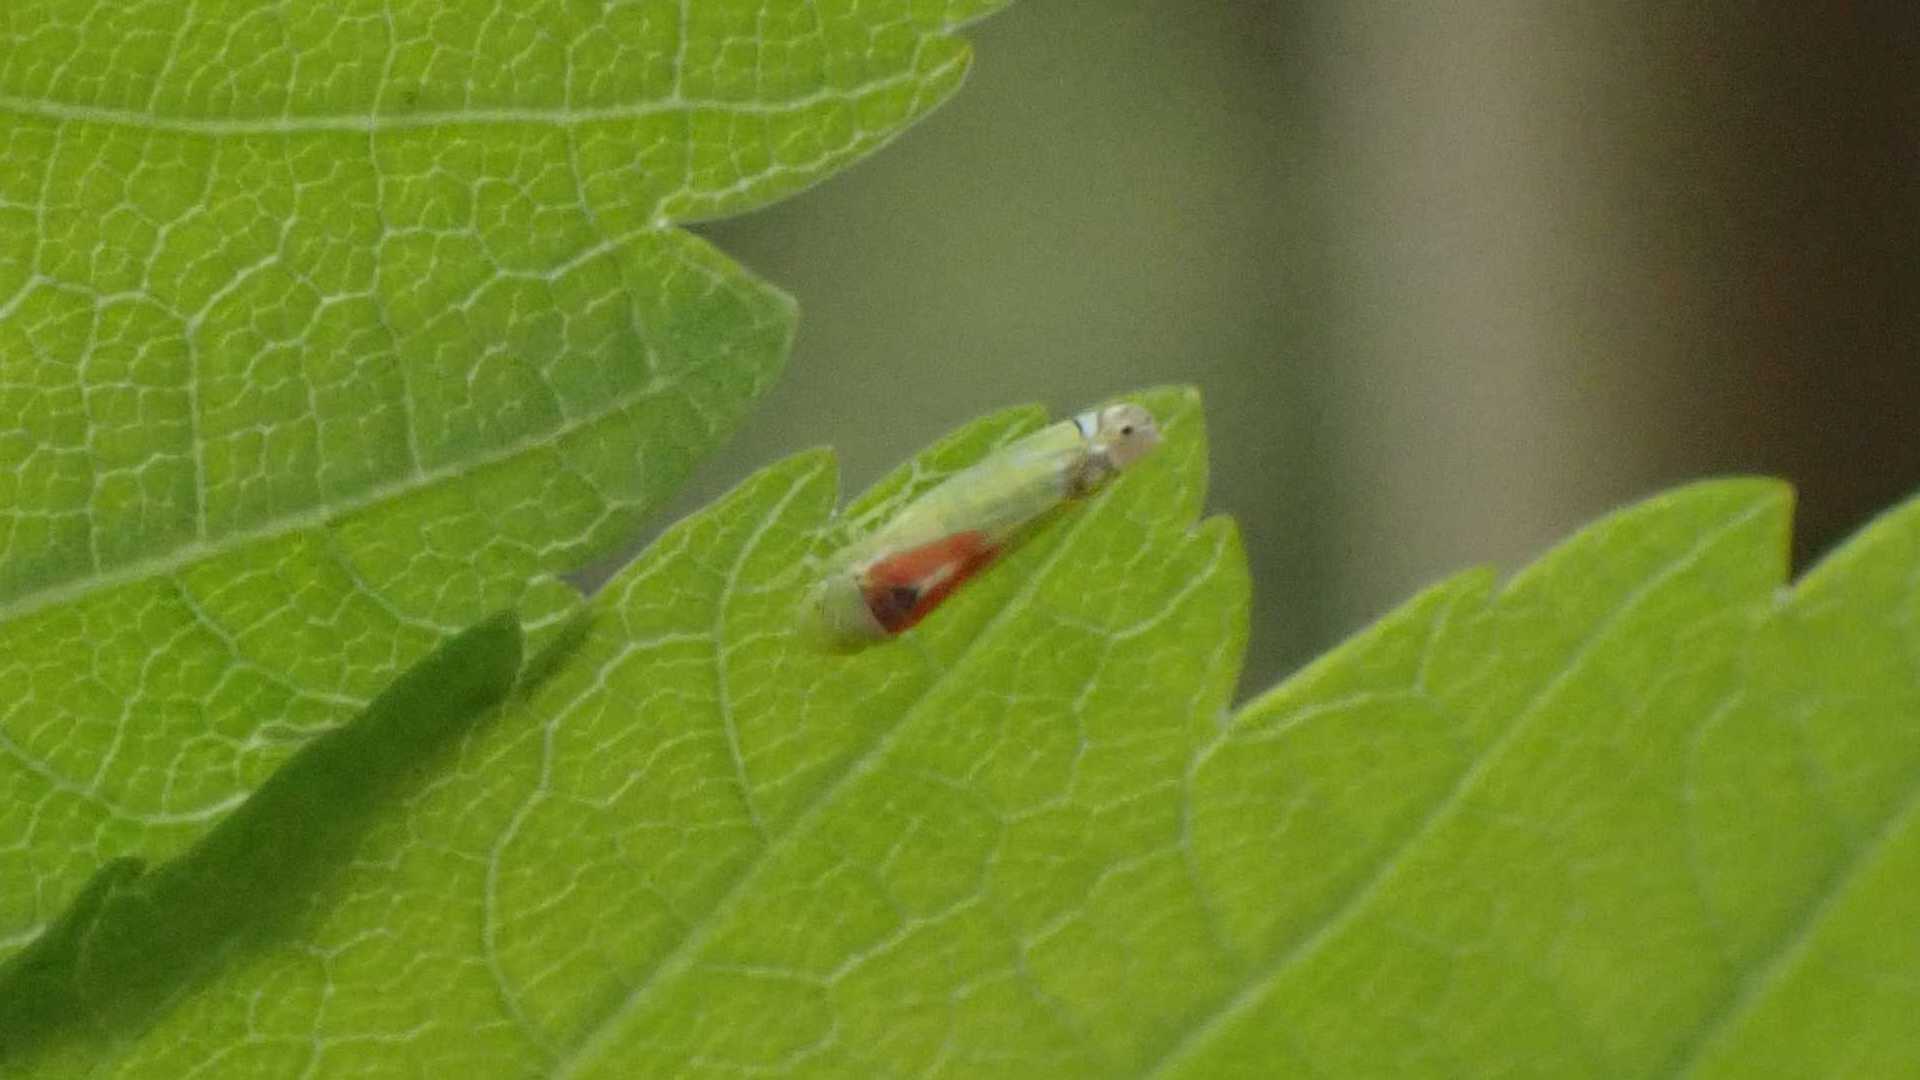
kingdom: Animalia
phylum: Arthropoda
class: Insecta
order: Hemiptera
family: Cicadellidae
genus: Zyginella
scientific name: Zyginella pulchra
